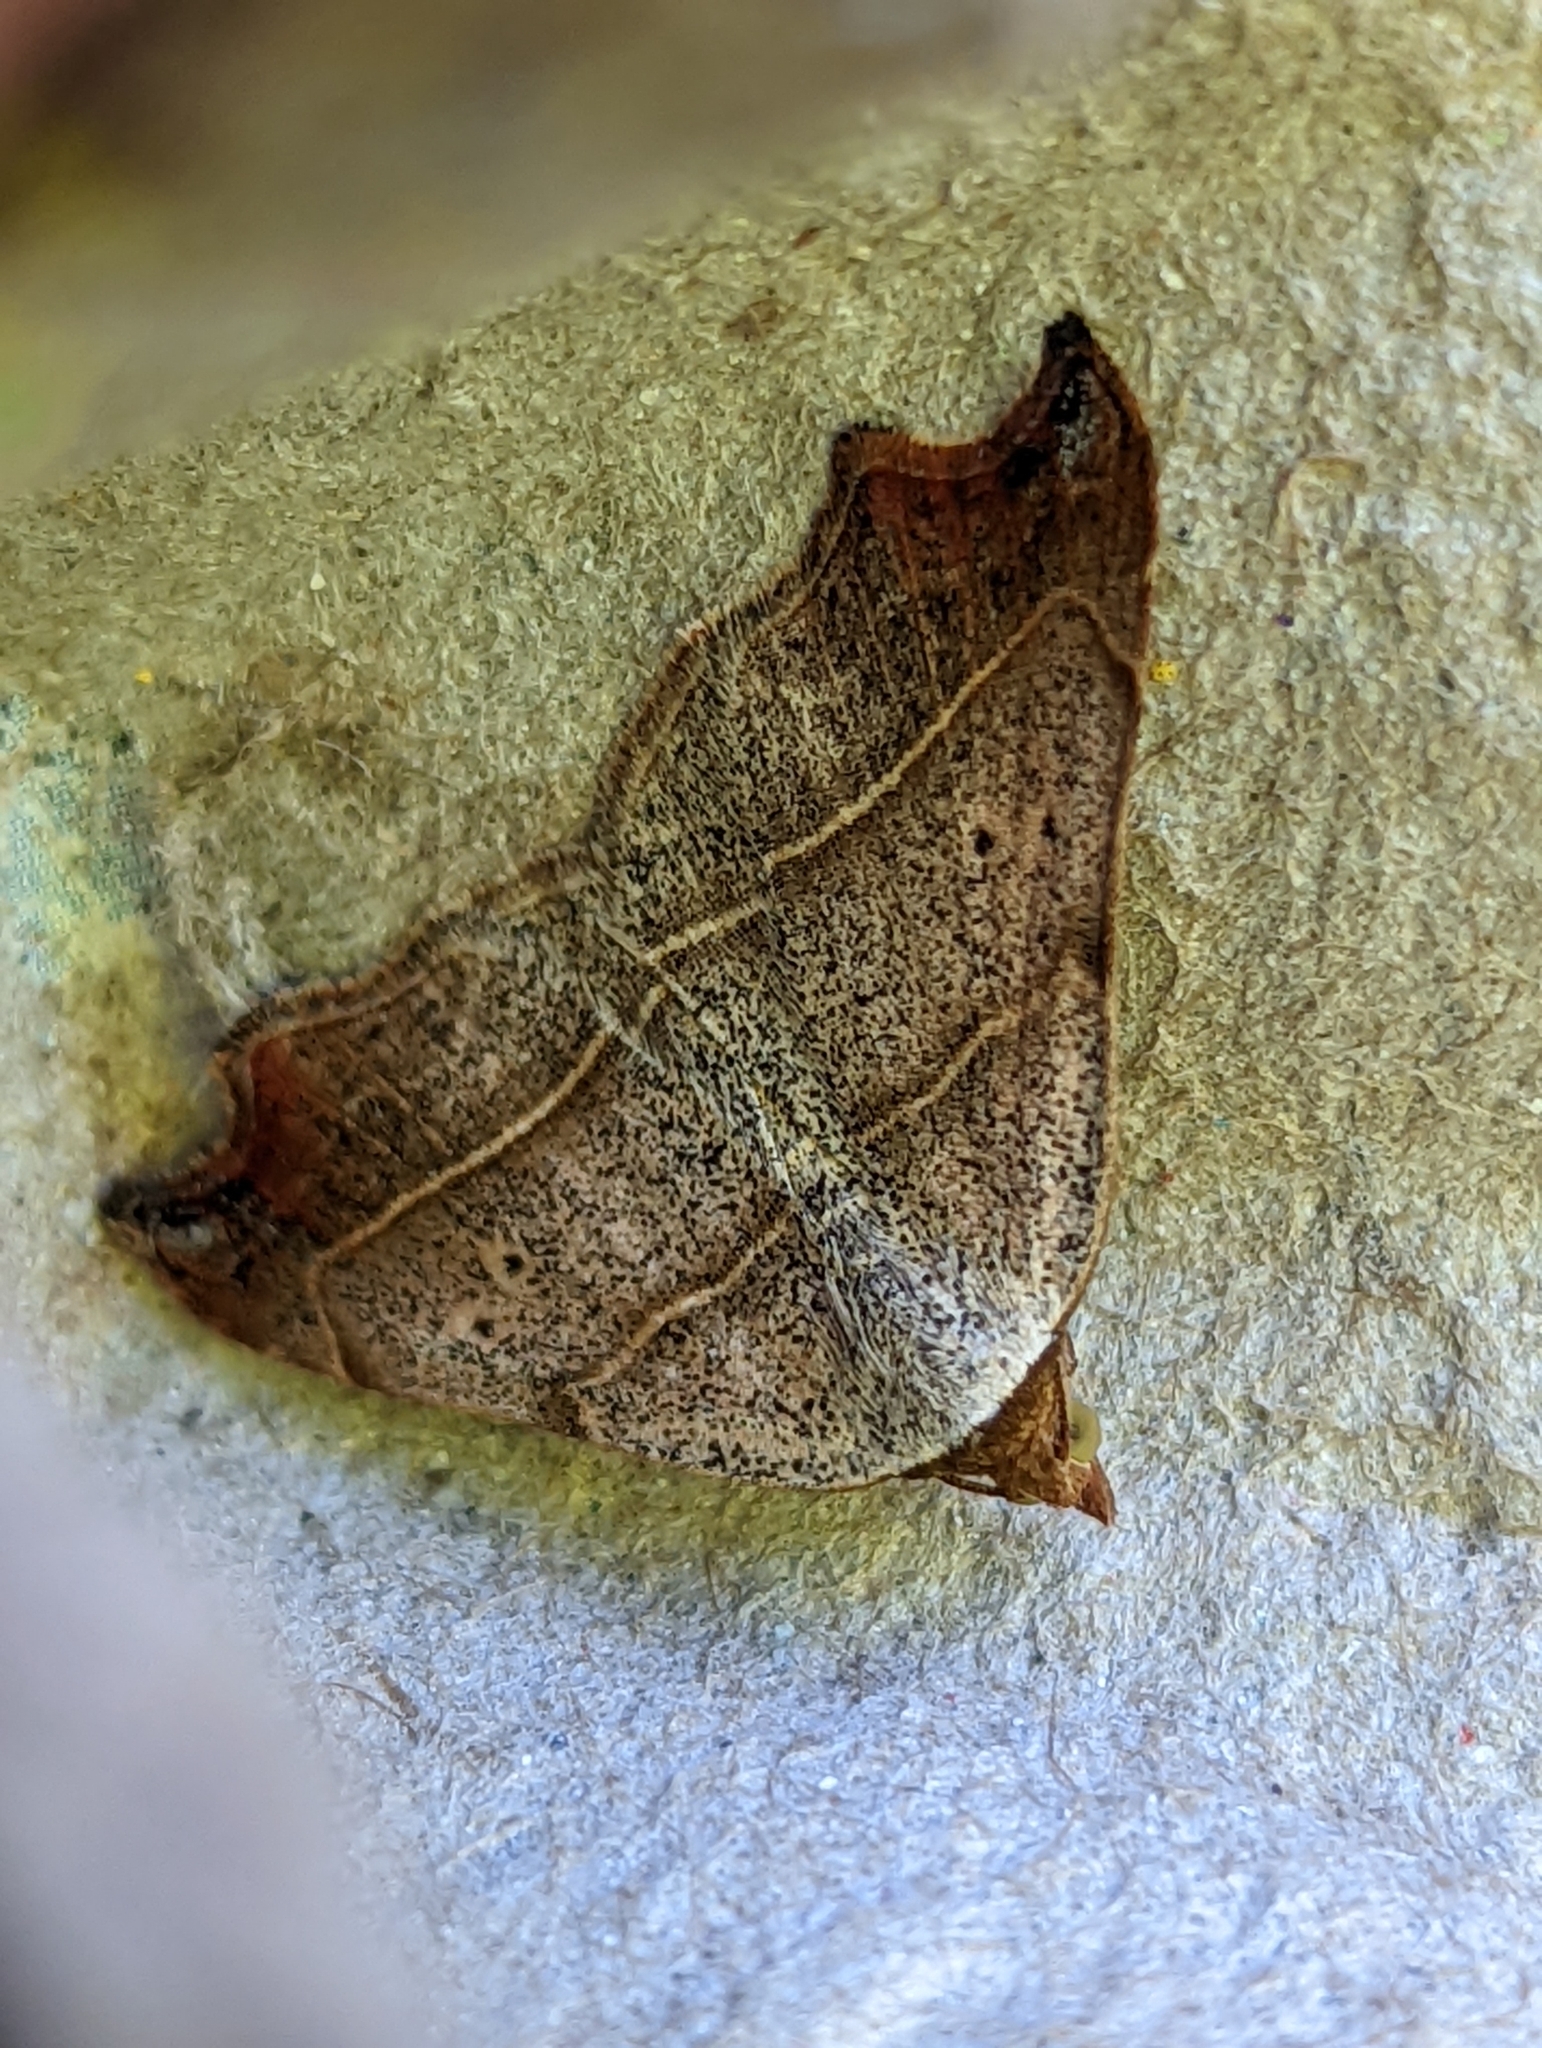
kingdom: Animalia
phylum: Arthropoda
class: Insecta
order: Lepidoptera
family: Erebidae
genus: Laspeyria
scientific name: Laspeyria flexula
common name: Beautiful hook-tip
